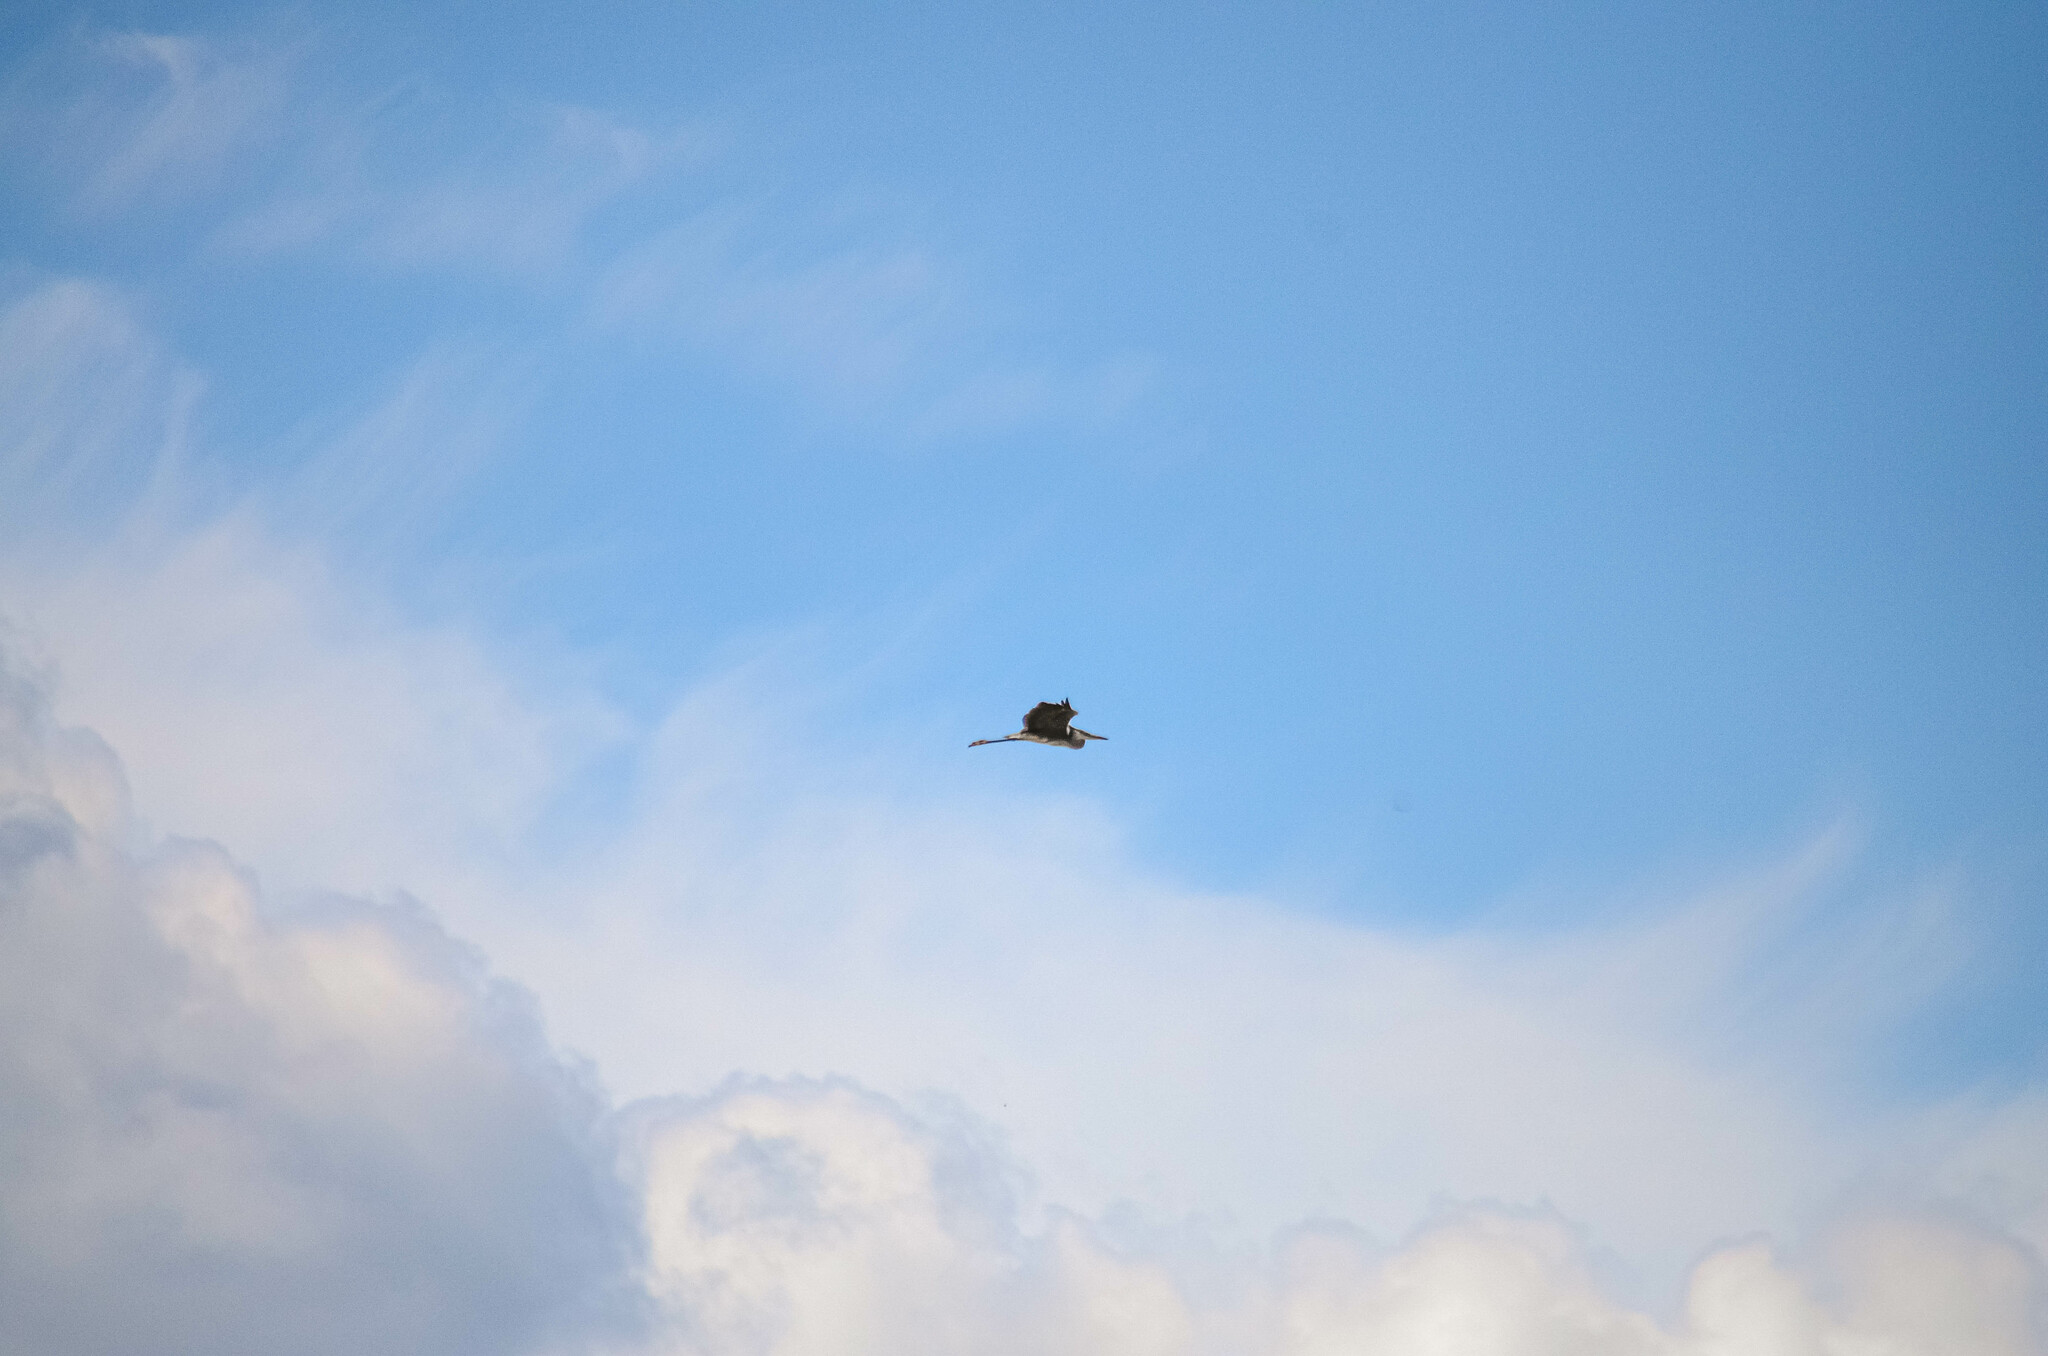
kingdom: Animalia
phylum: Chordata
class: Aves
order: Pelecaniformes
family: Ardeidae
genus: Ardea
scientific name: Ardea cinerea
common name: Grey heron
